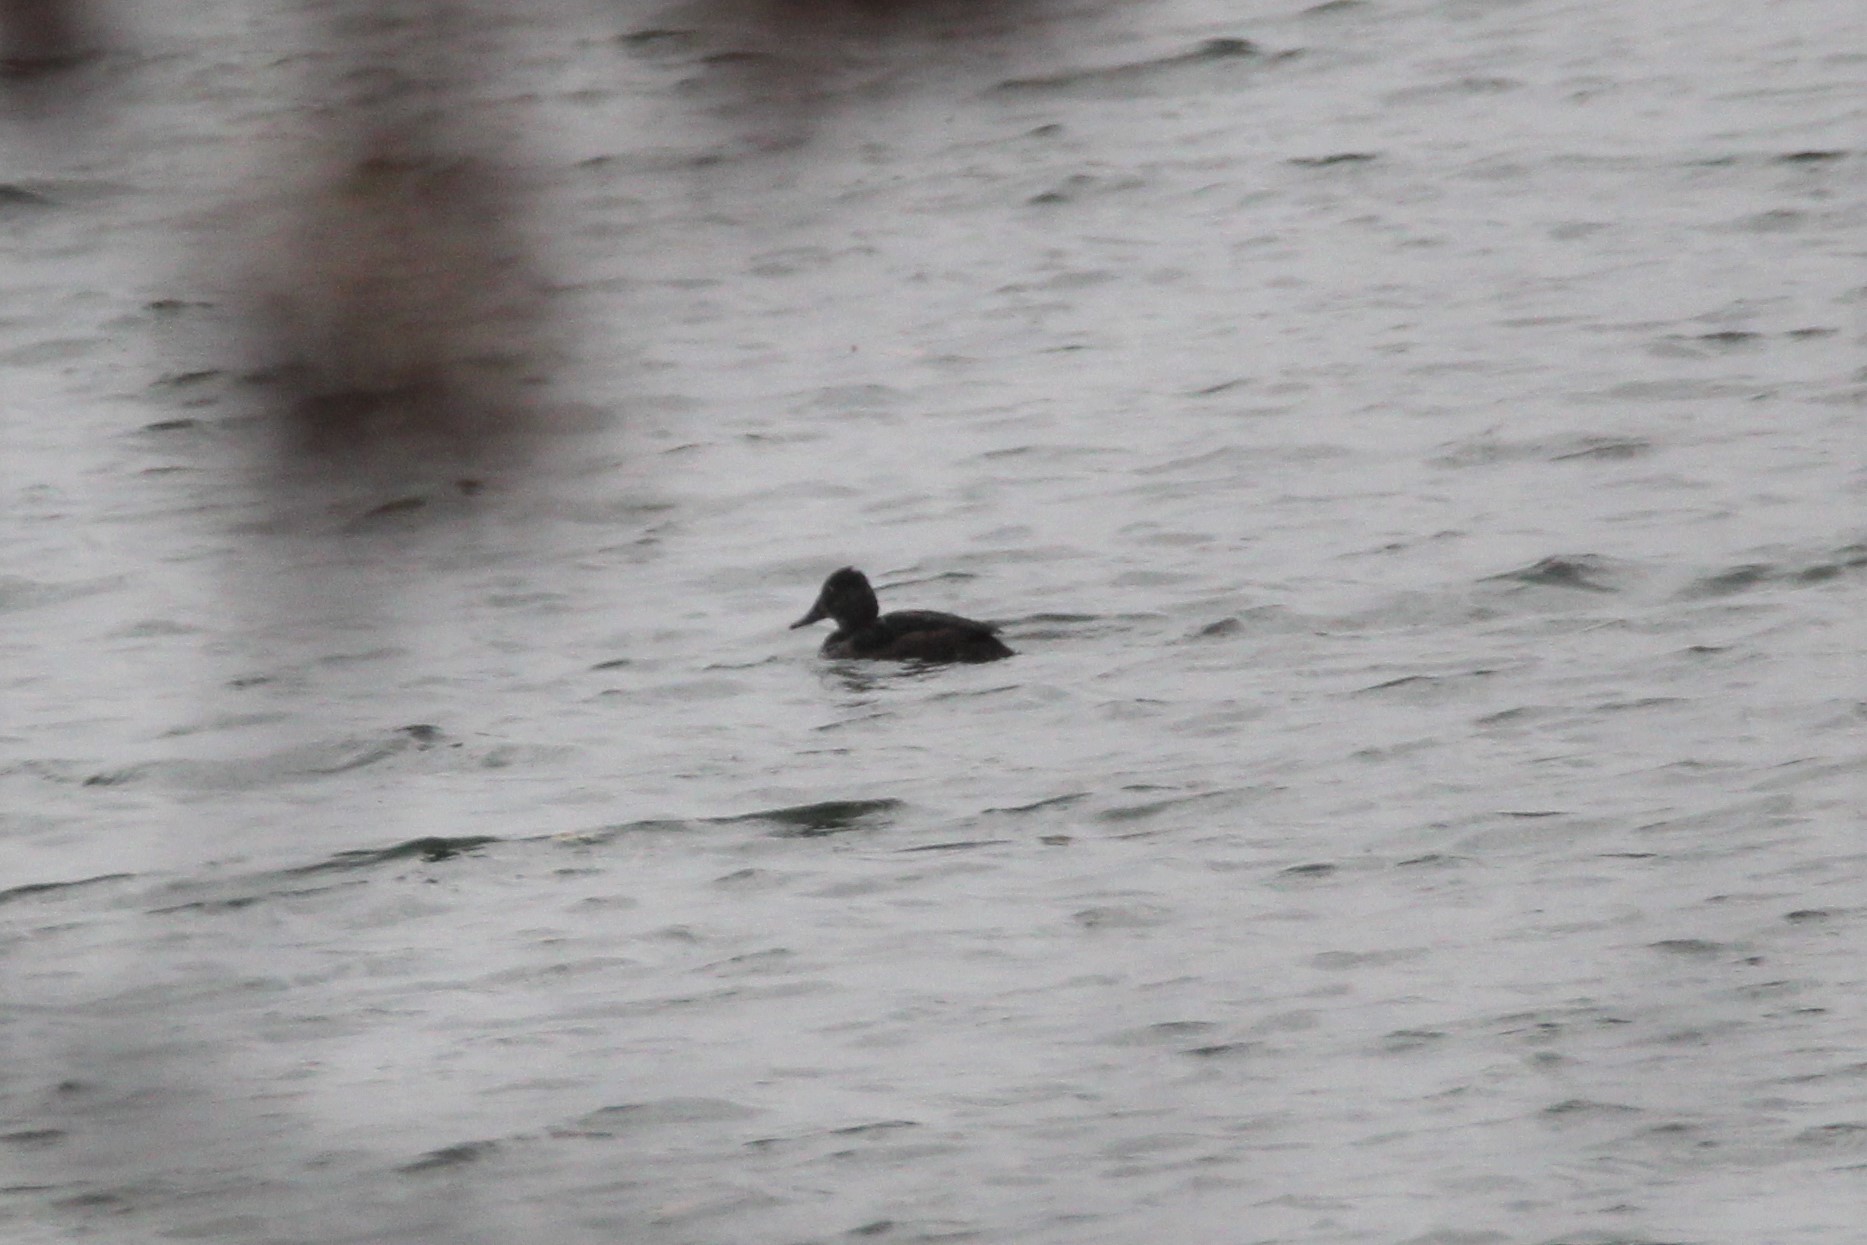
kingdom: Animalia
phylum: Chordata
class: Aves
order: Anseriformes
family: Anatidae
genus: Aythya
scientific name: Aythya collaris
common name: Ring-necked duck
